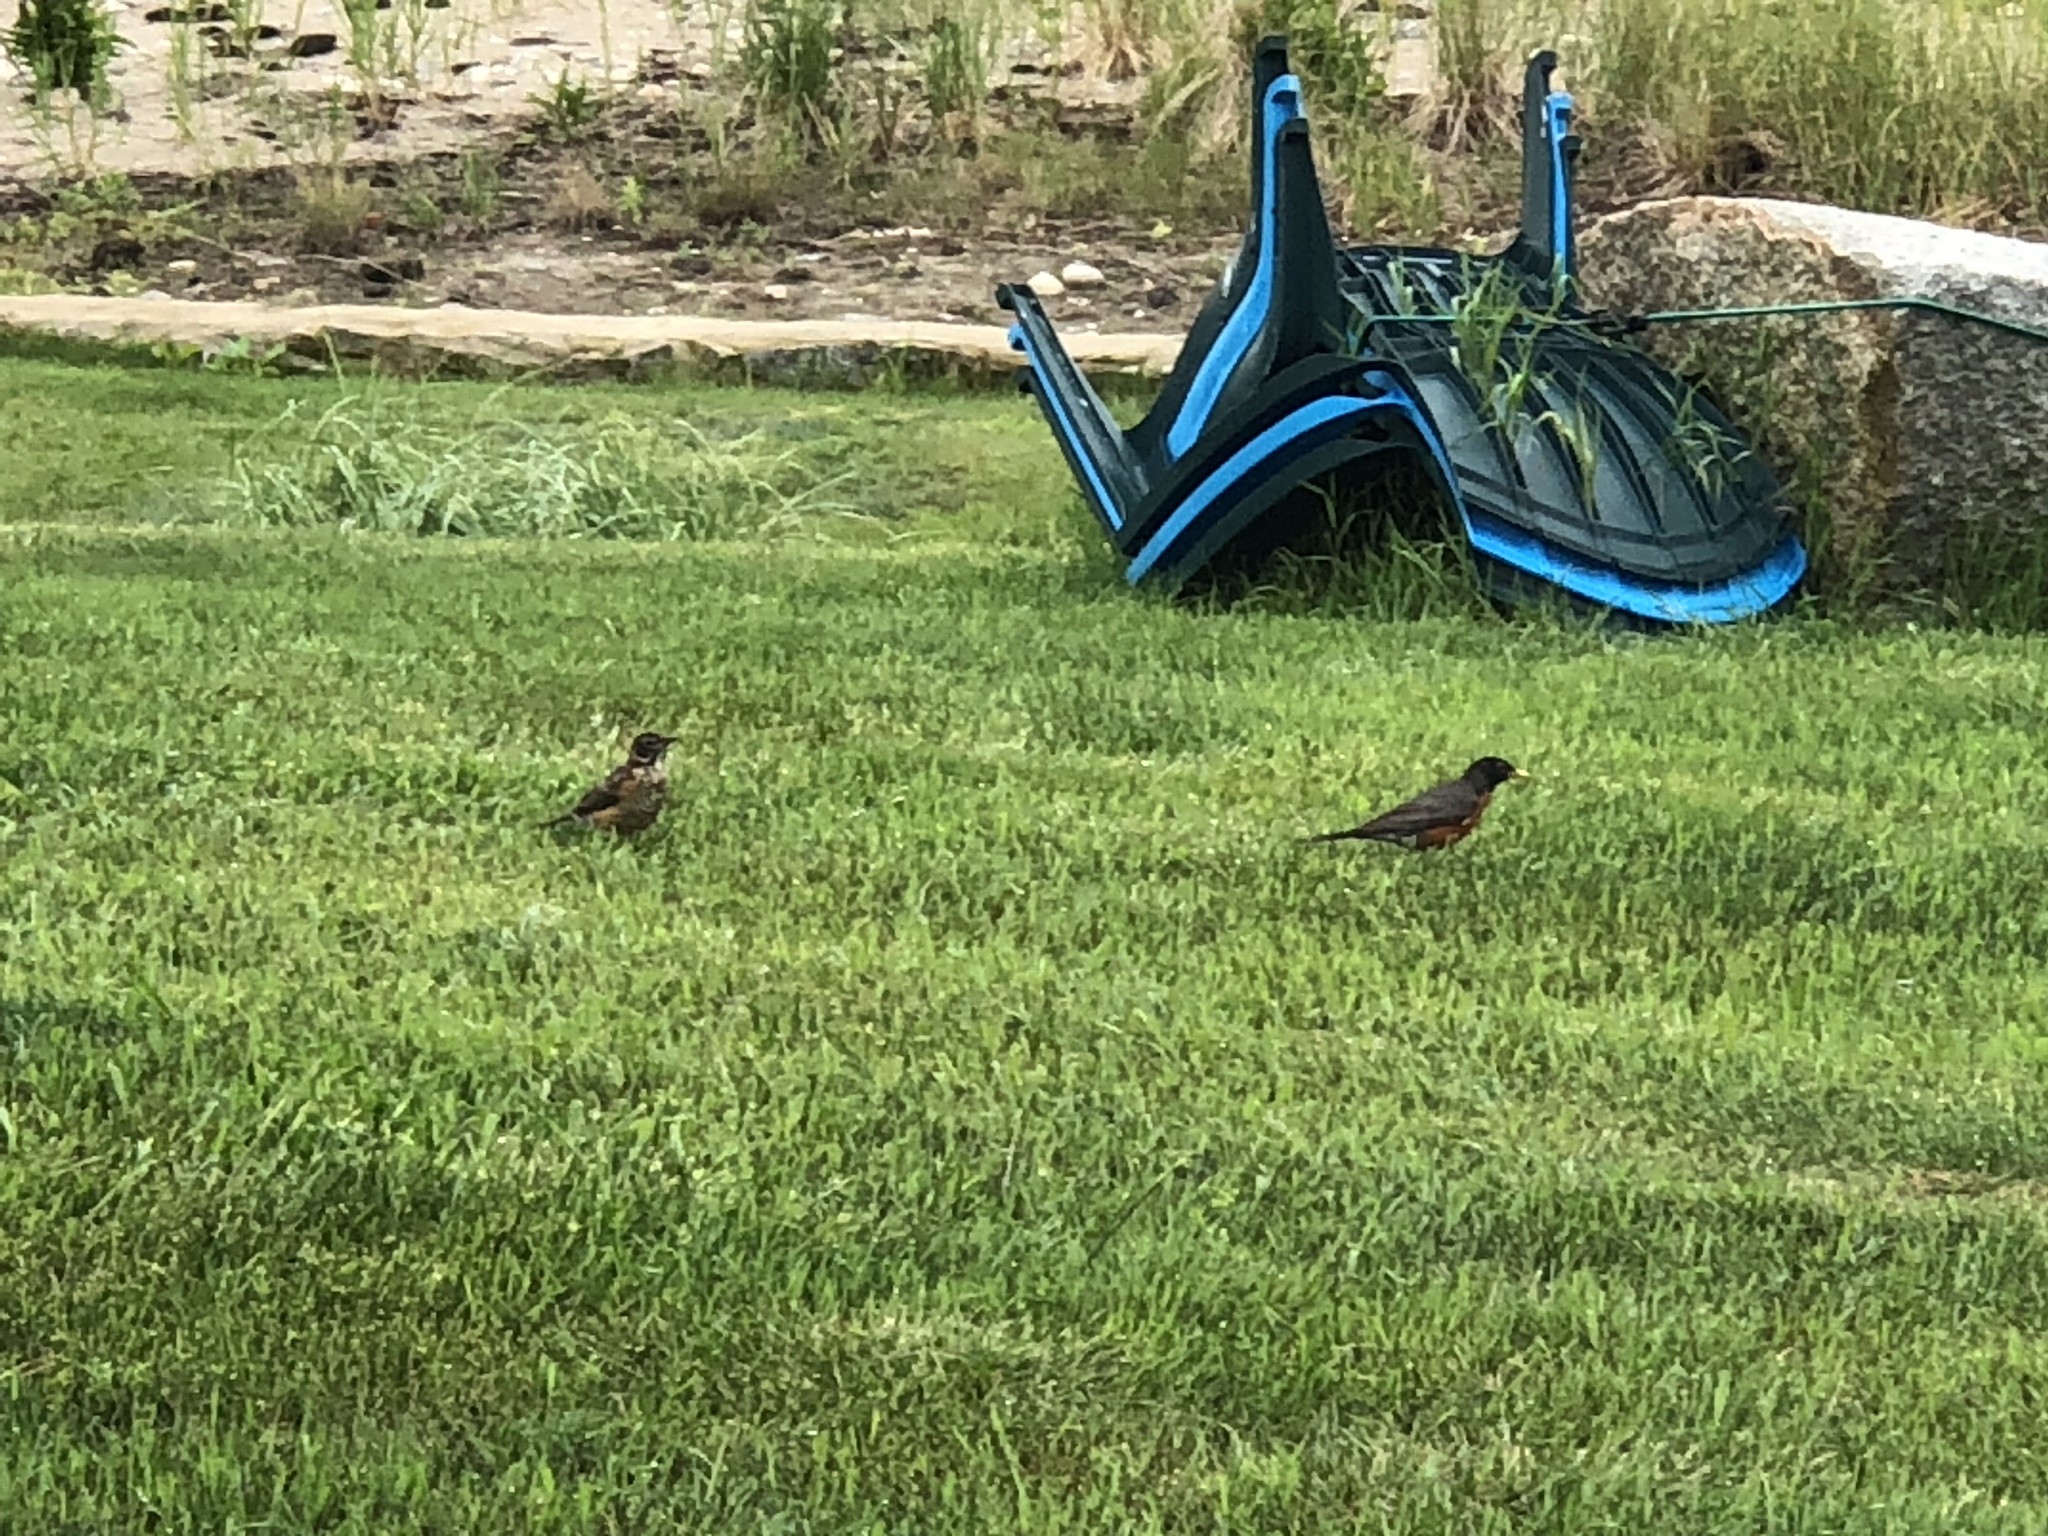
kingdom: Animalia
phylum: Chordata
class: Aves
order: Passeriformes
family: Turdidae
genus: Turdus
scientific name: Turdus migratorius
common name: American robin
